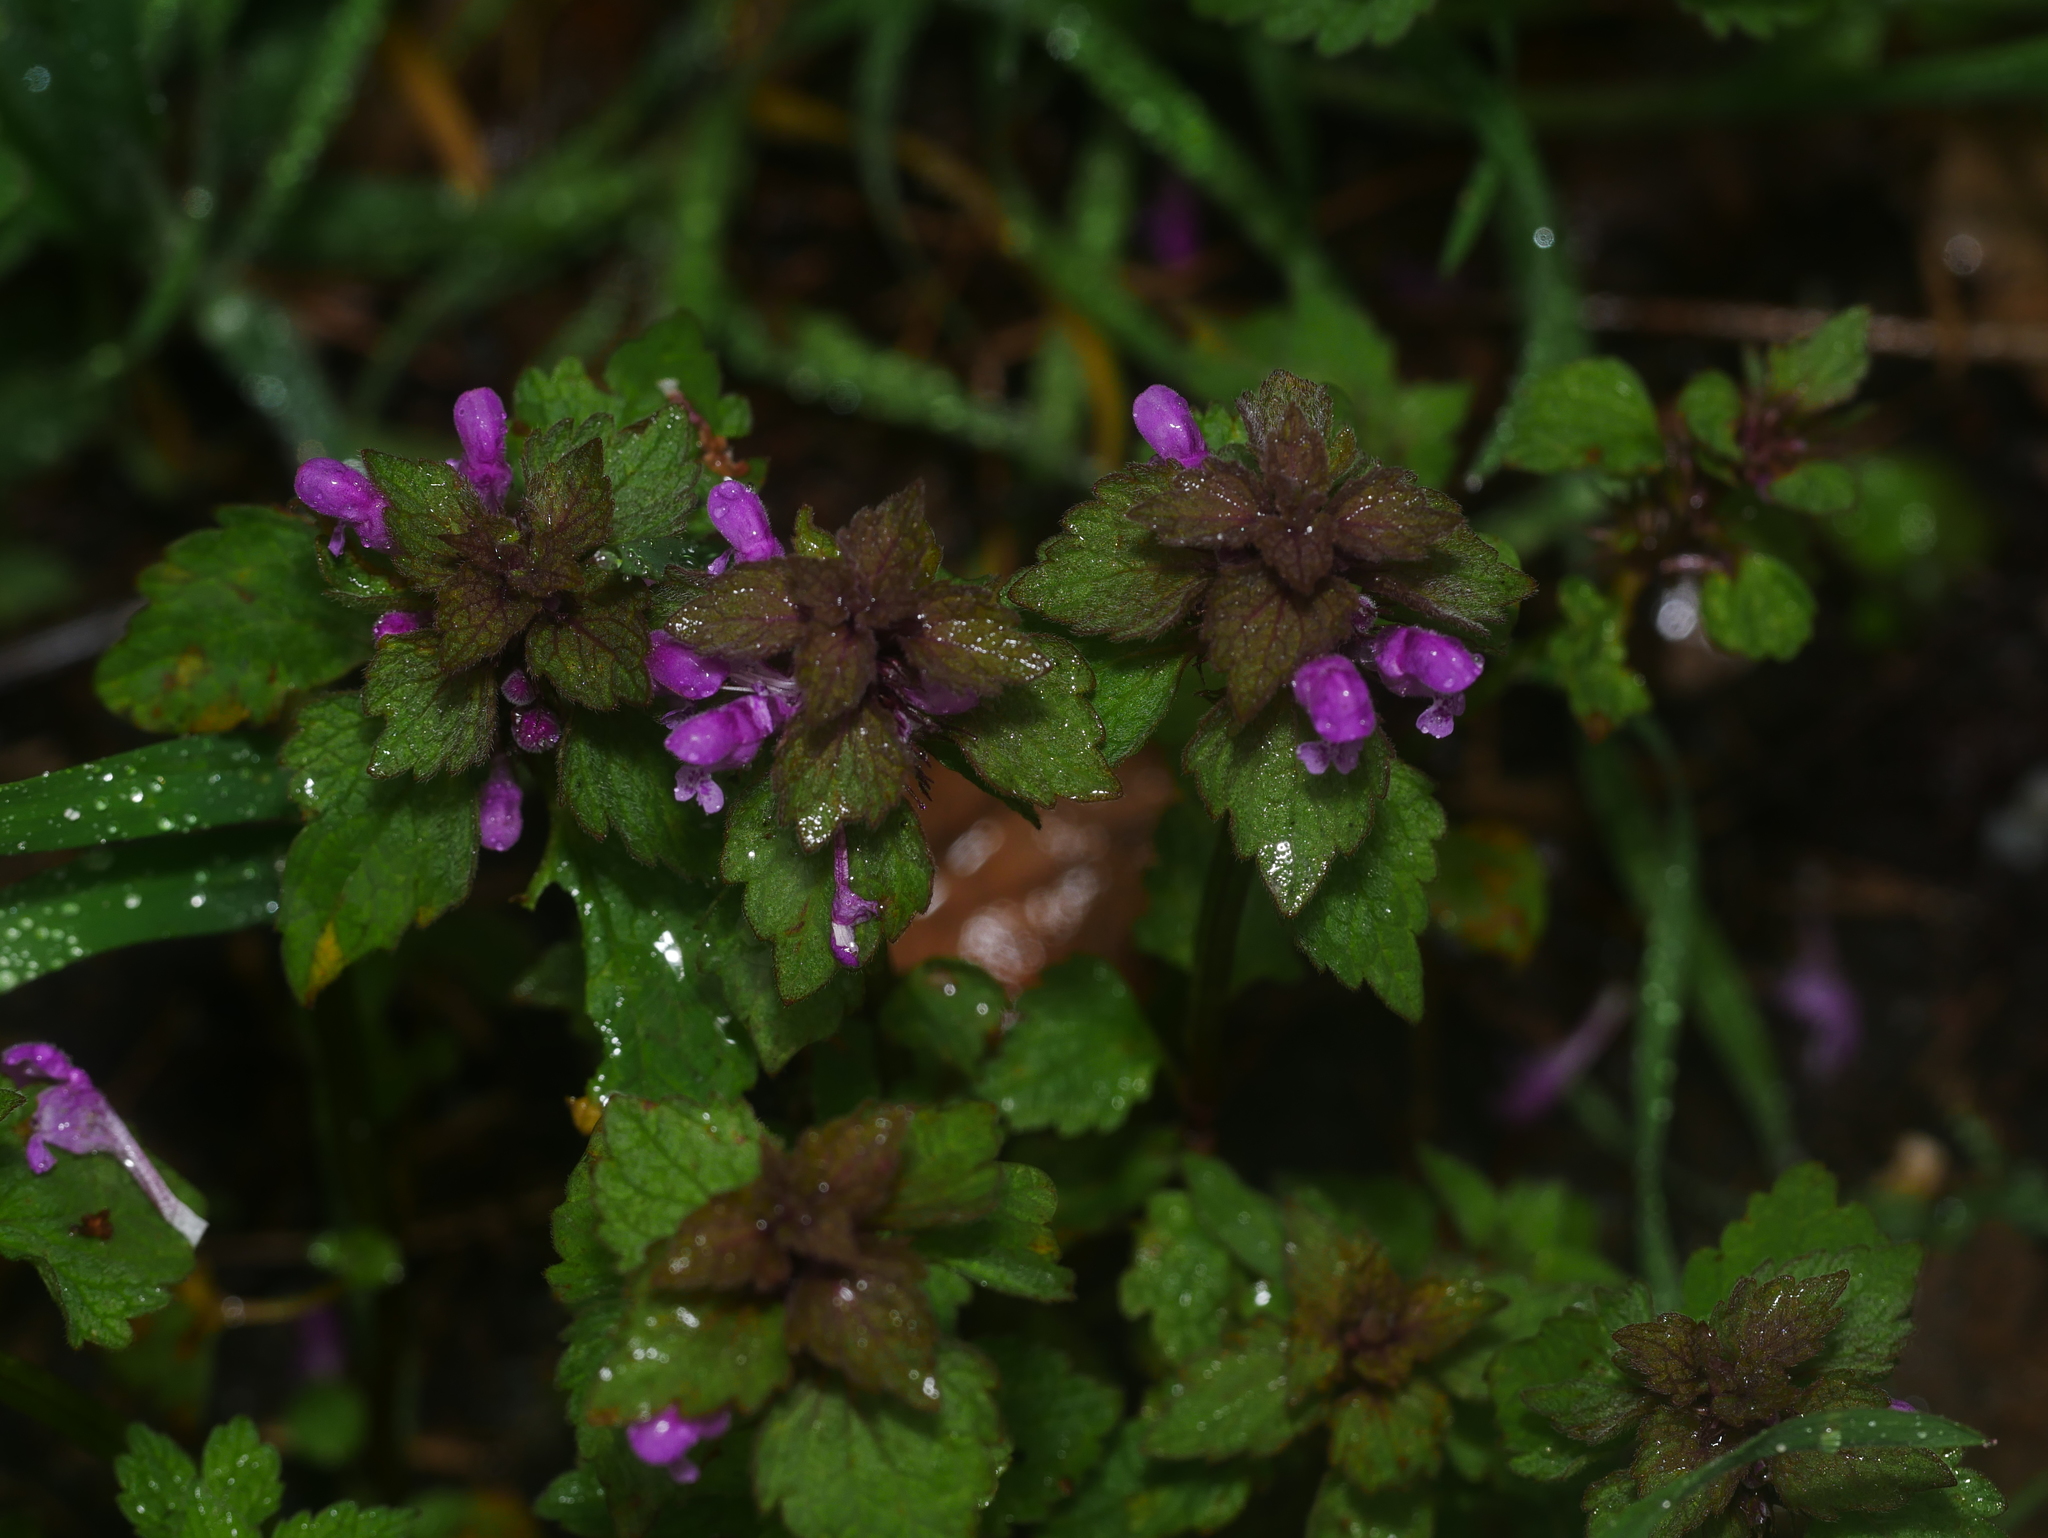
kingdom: Plantae
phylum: Tracheophyta
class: Magnoliopsida
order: Lamiales
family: Lamiaceae
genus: Lamium
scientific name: Lamium purpureum
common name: Red dead-nettle
